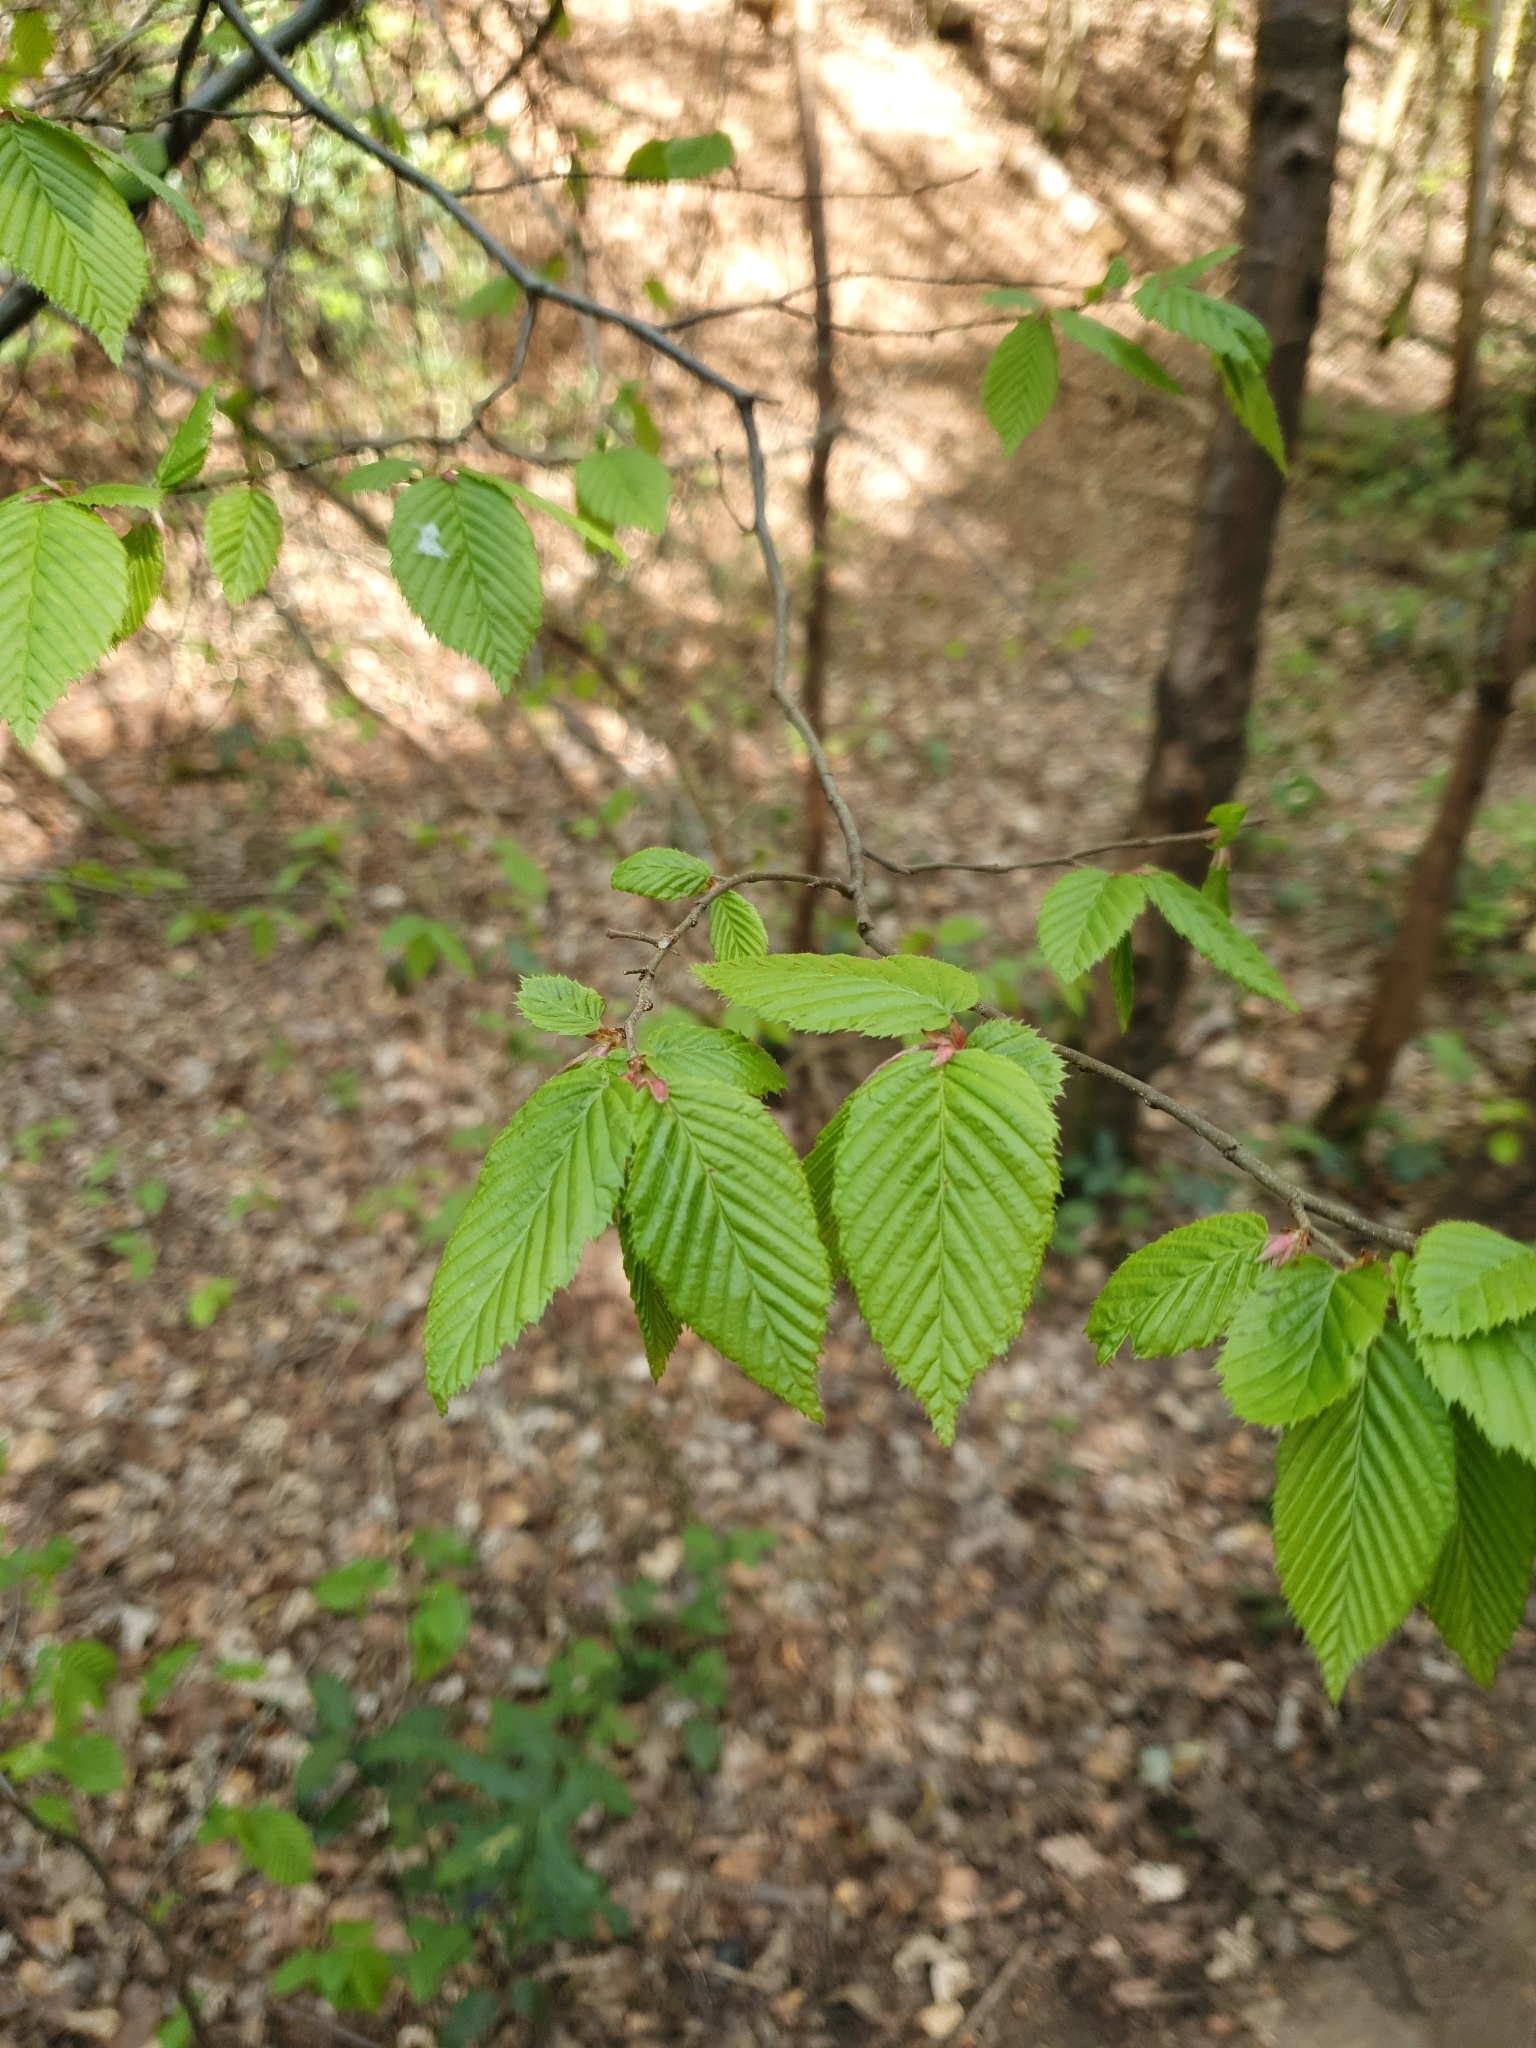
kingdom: Plantae
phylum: Tracheophyta
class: Magnoliopsida
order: Fagales
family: Betulaceae
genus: Carpinus
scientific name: Carpinus betulus
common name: Hornbeam
